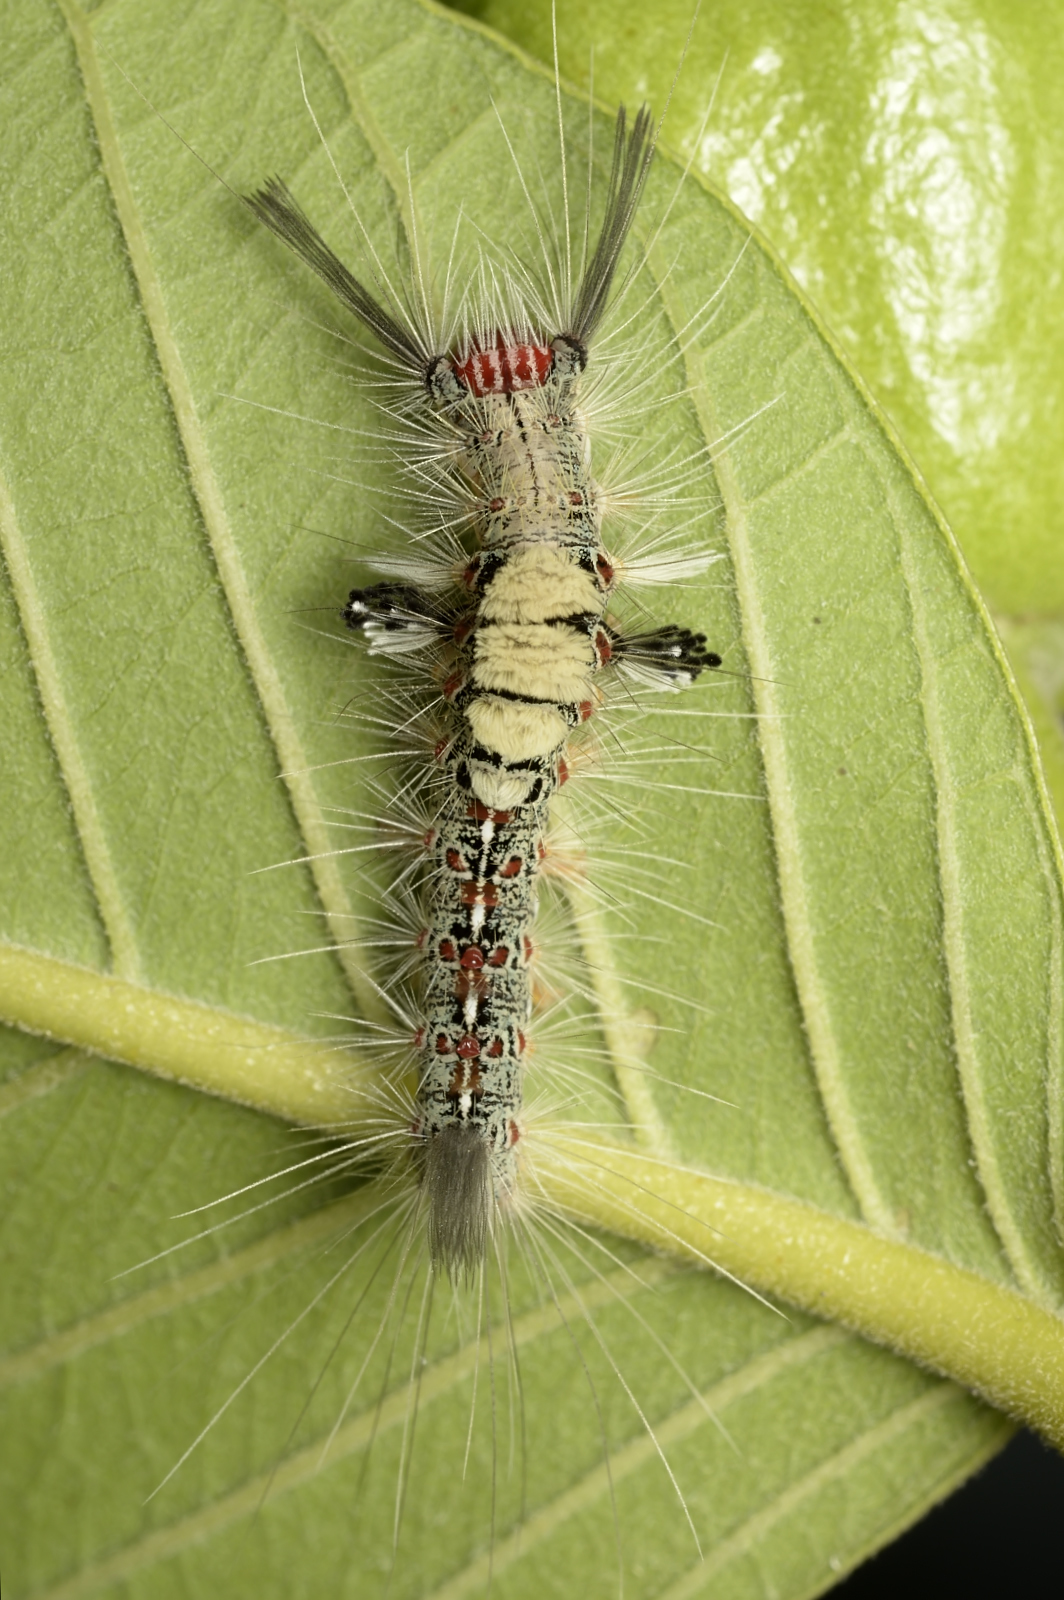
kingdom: Animalia
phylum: Arthropoda
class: Insecta
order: Lepidoptera
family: Erebidae
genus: Olene
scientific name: Olene mendosa
